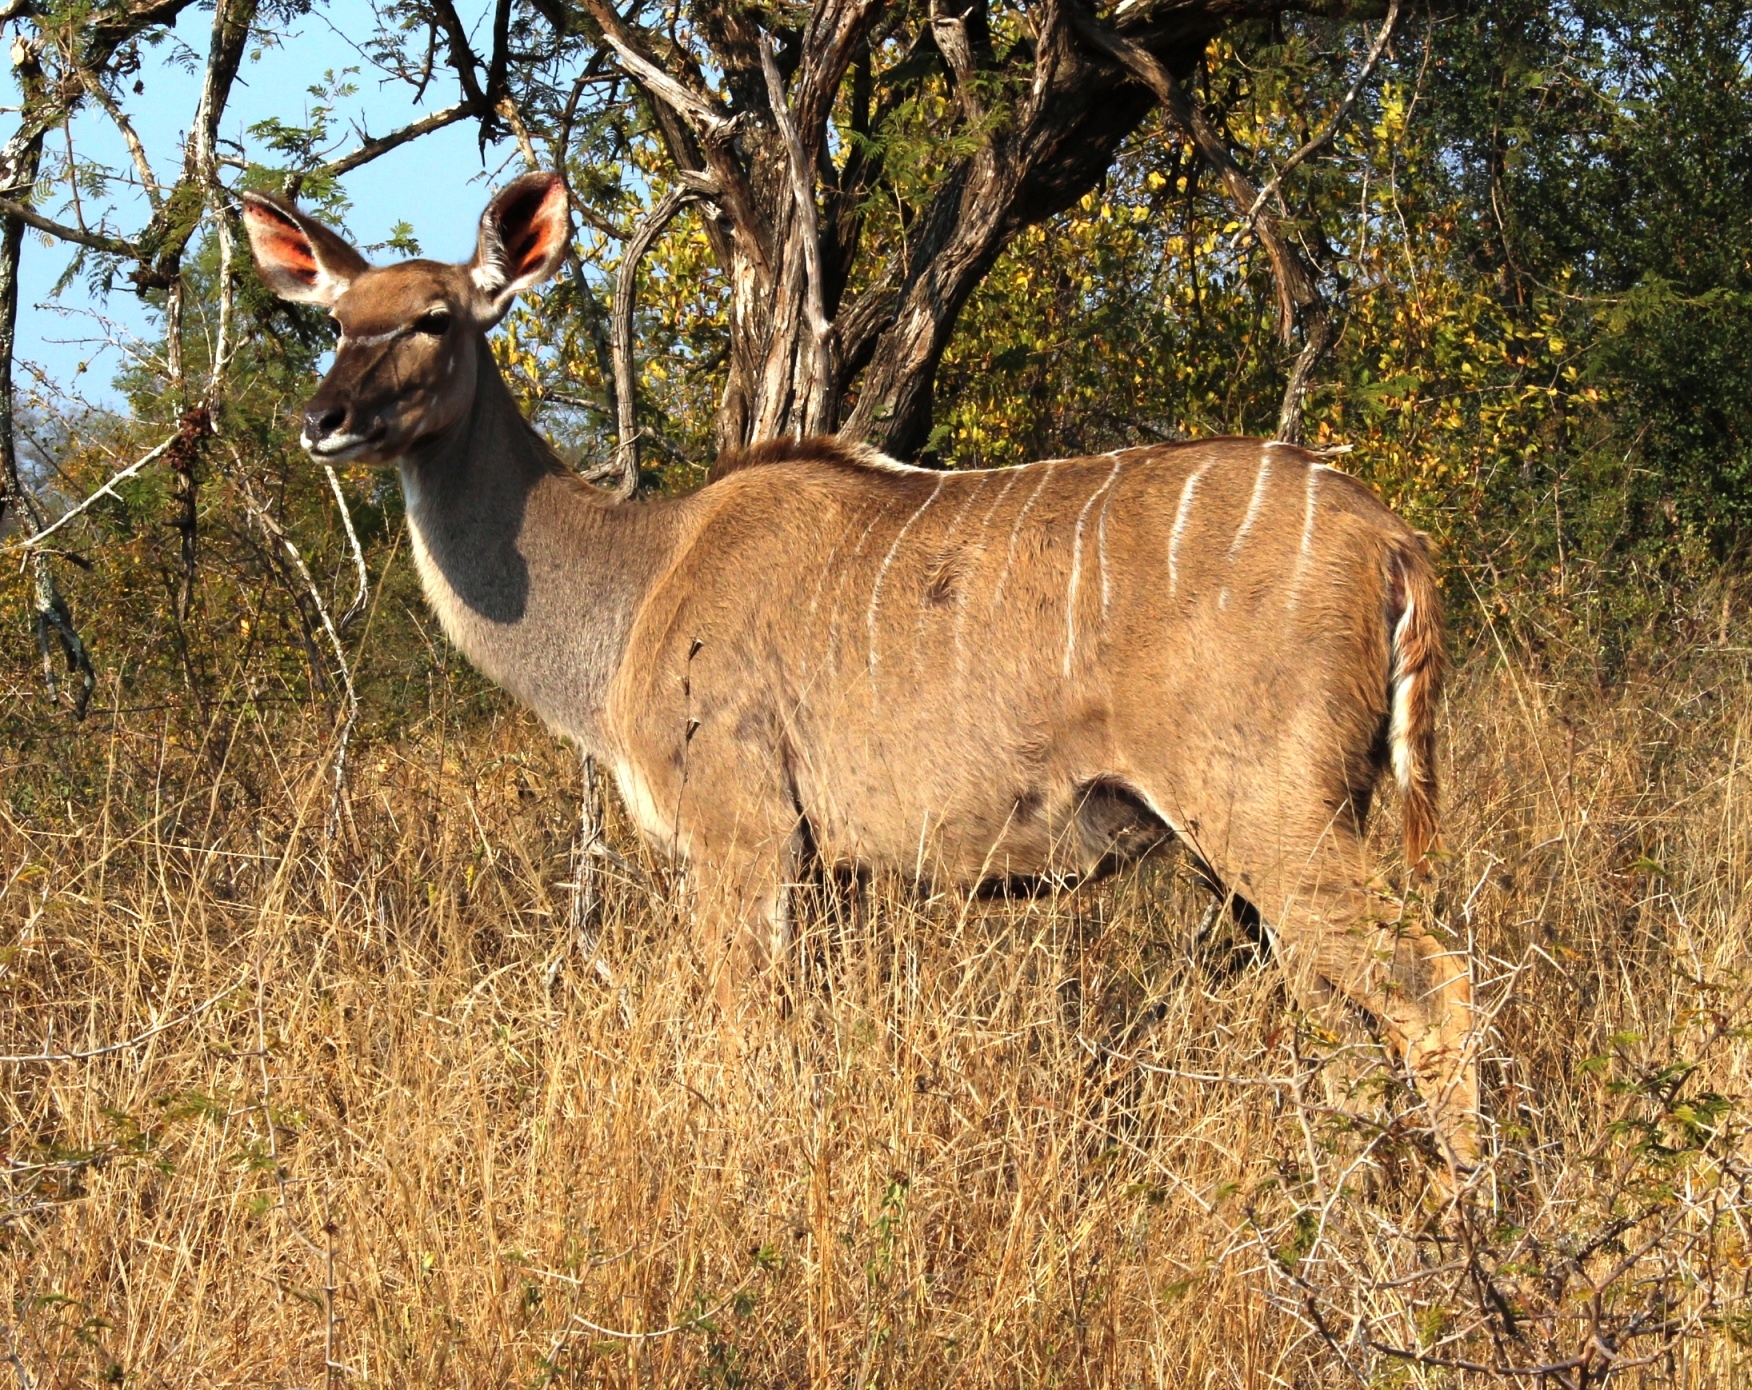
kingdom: Animalia
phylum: Chordata
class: Mammalia
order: Artiodactyla
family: Bovidae
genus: Tragelaphus
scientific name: Tragelaphus strepsiceros
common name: Greater kudu
